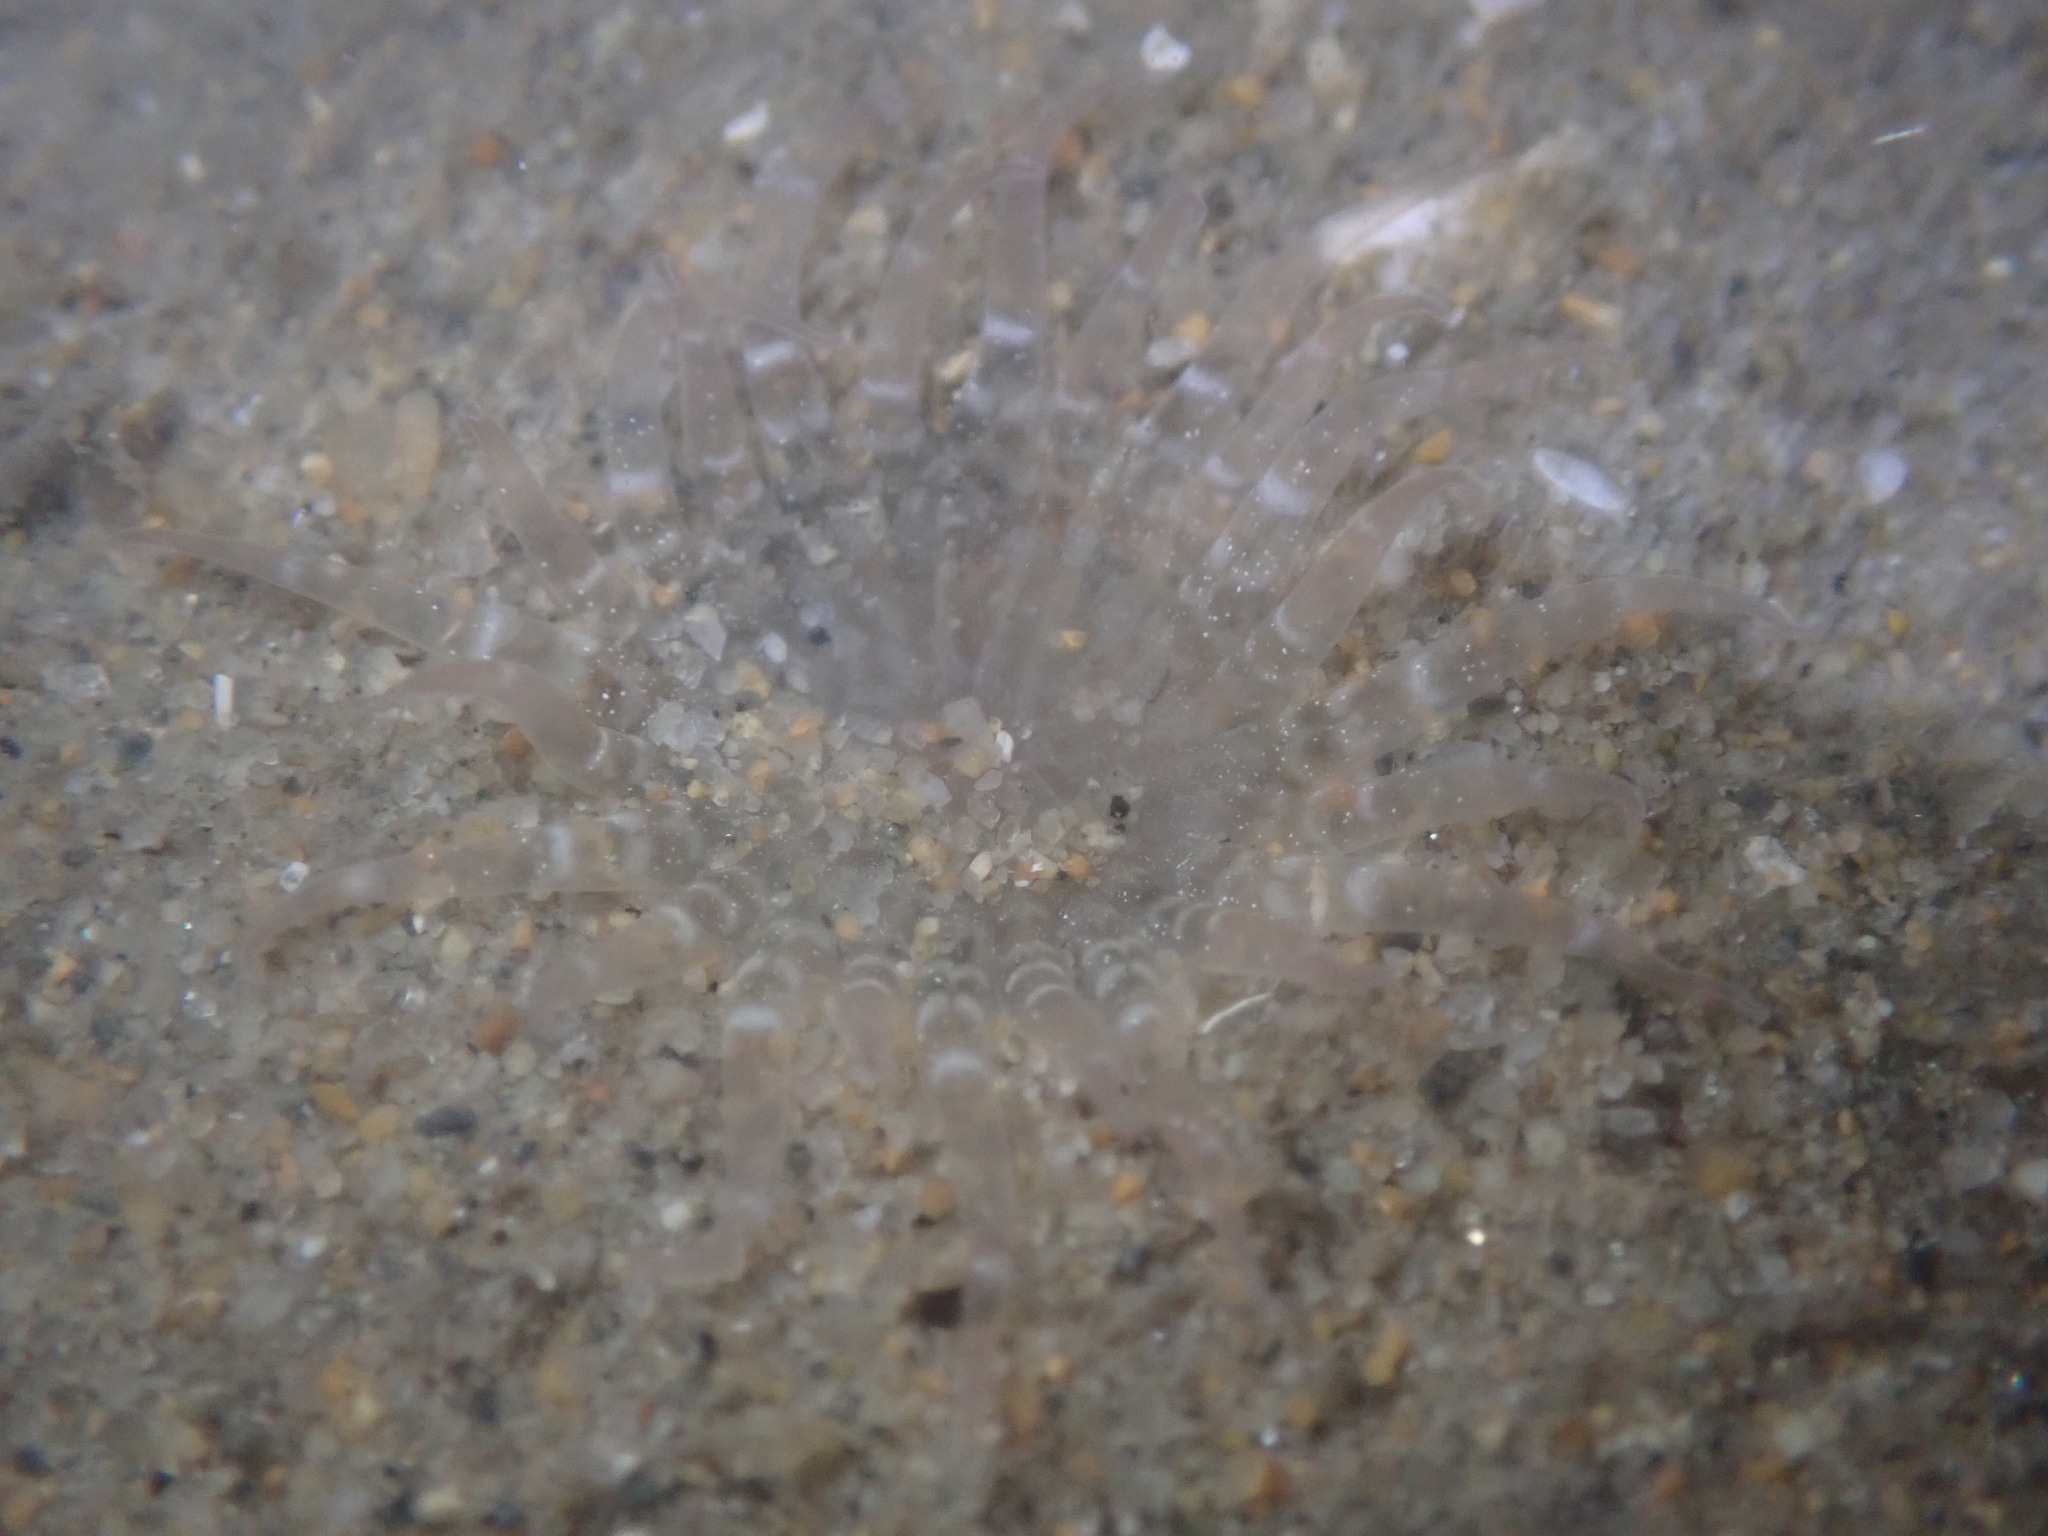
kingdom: Animalia
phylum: Cnidaria
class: Anthozoa
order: Actiniaria
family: Harenactidae
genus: Harenactis
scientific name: Harenactis attenuata
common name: Giant burrowing anemone
